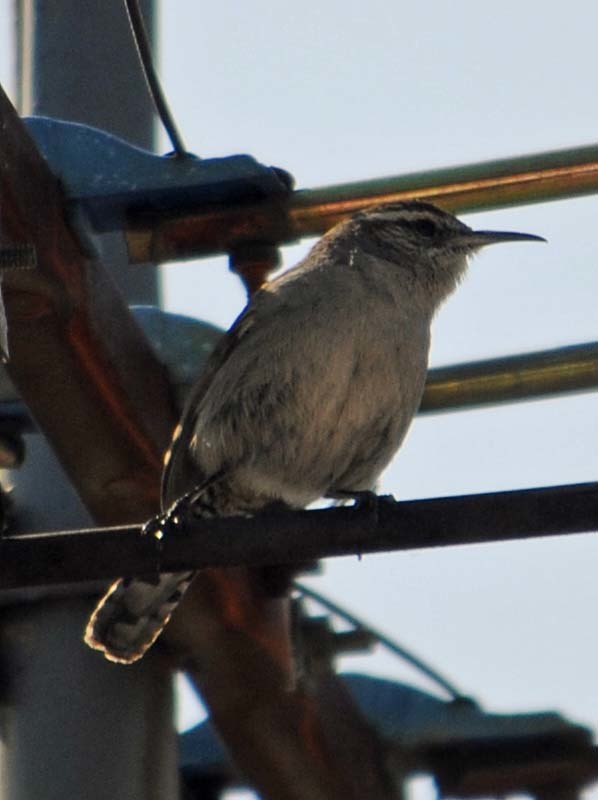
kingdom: Animalia
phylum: Chordata
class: Aves
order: Passeriformes
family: Troglodytidae
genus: Thryomanes
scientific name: Thryomanes bewickii
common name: Bewick's wren
